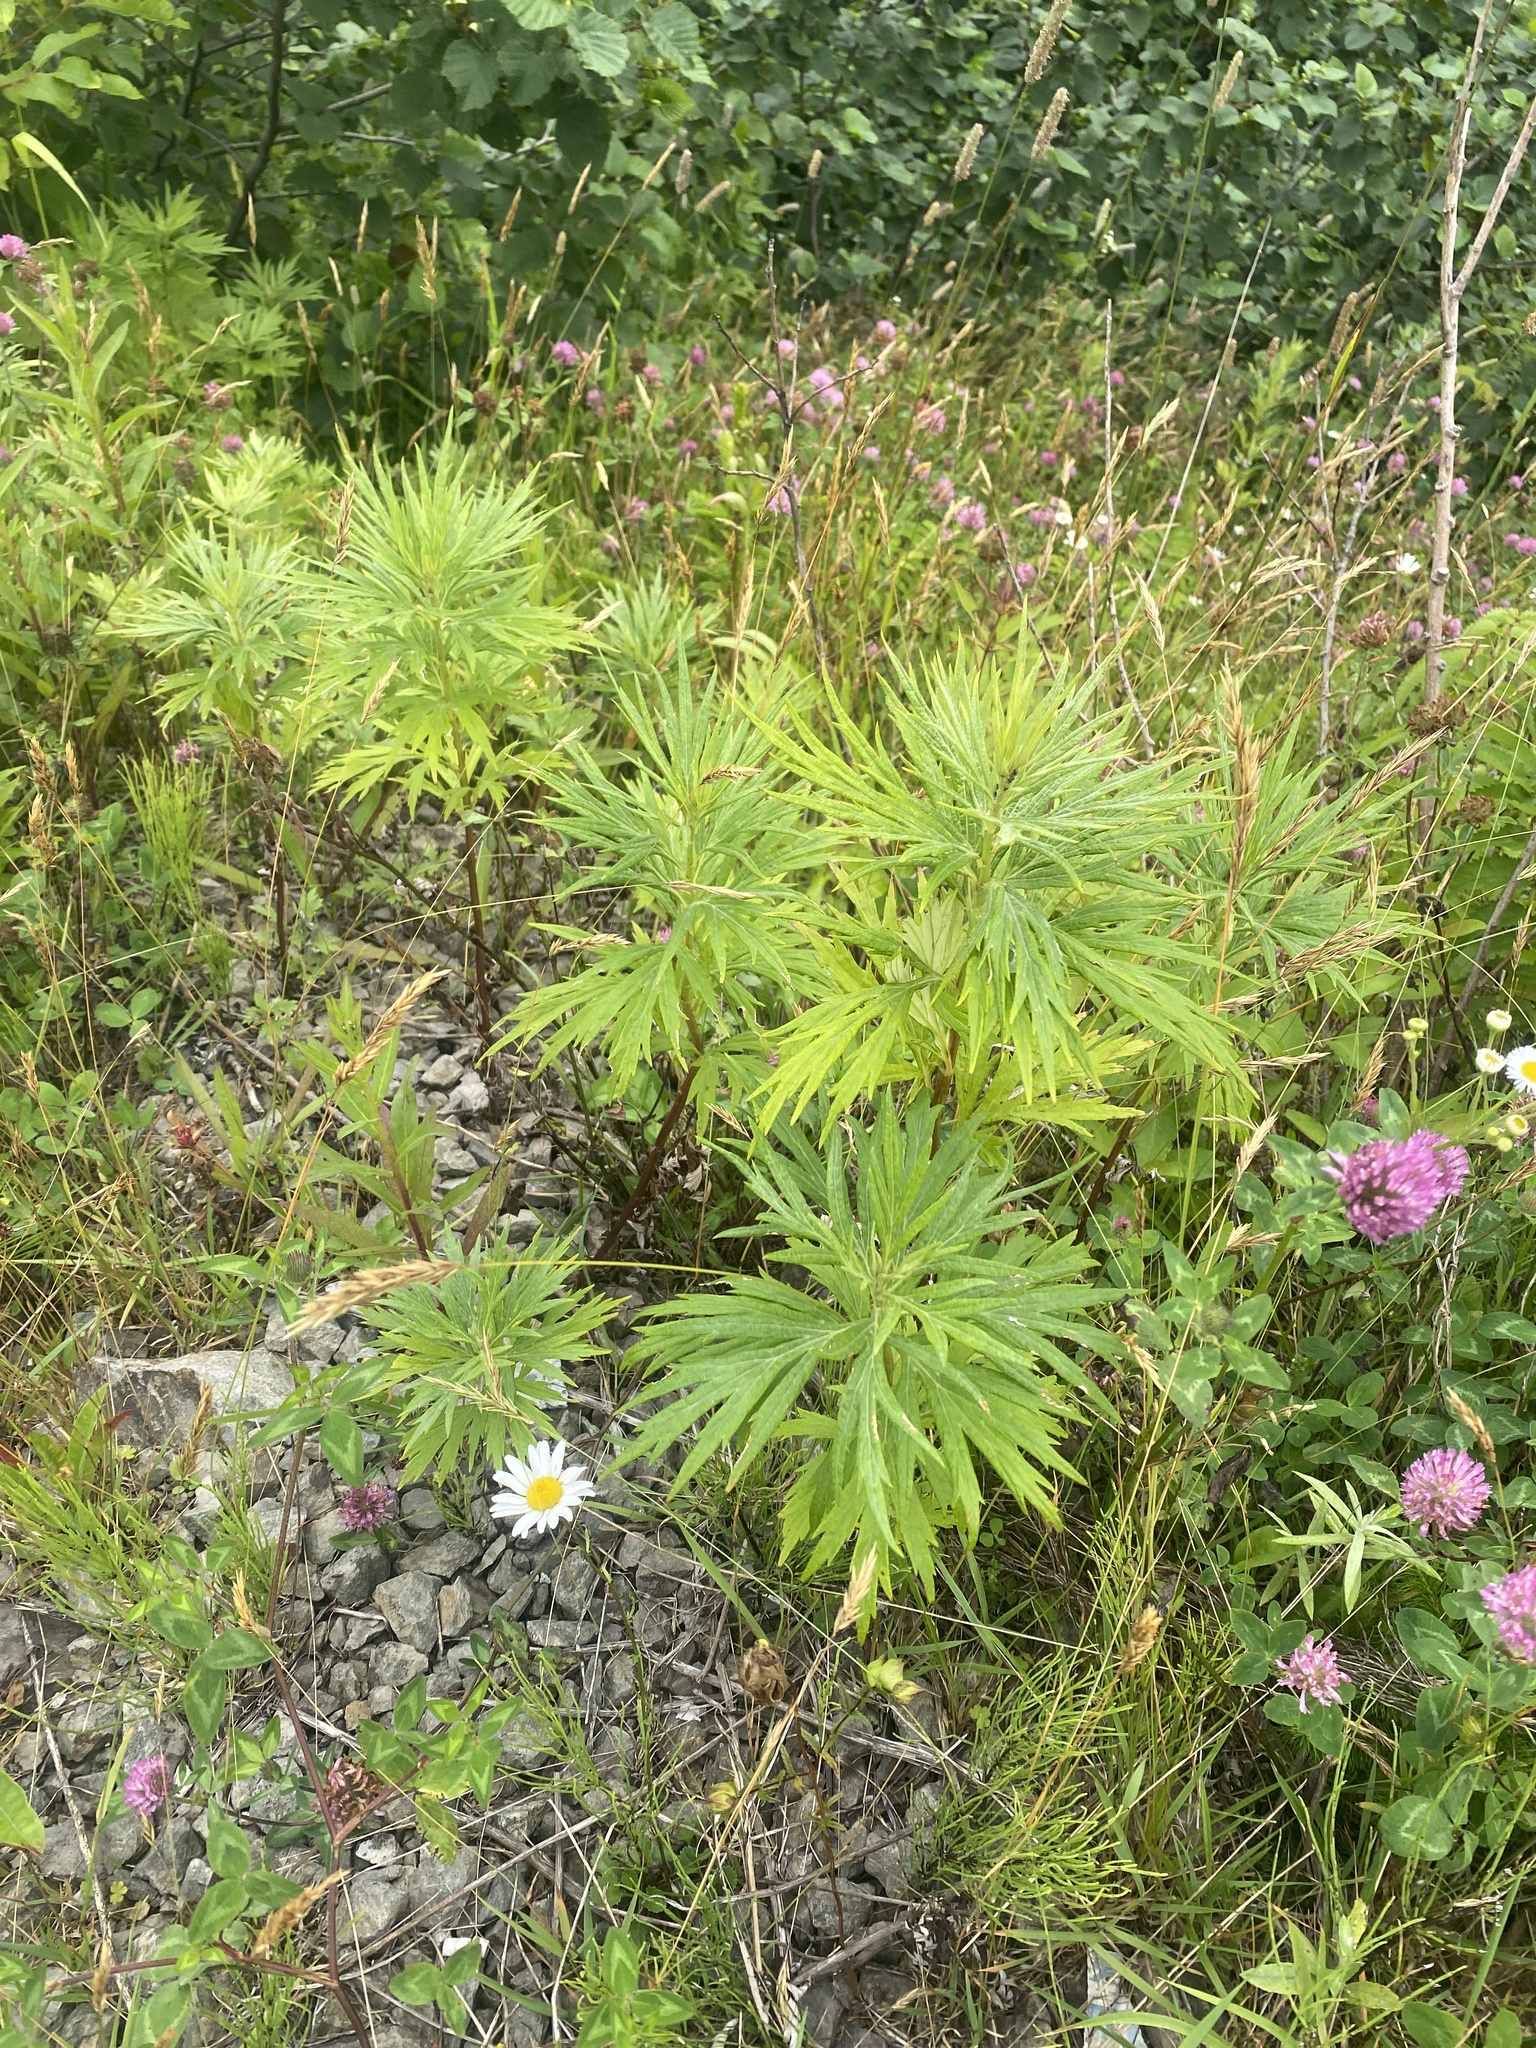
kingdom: Plantae
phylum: Tracheophyta
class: Magnoliopsida
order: Asterales
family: Asteraceae
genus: Jacobaea
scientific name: Jacobaea cannabifolia
